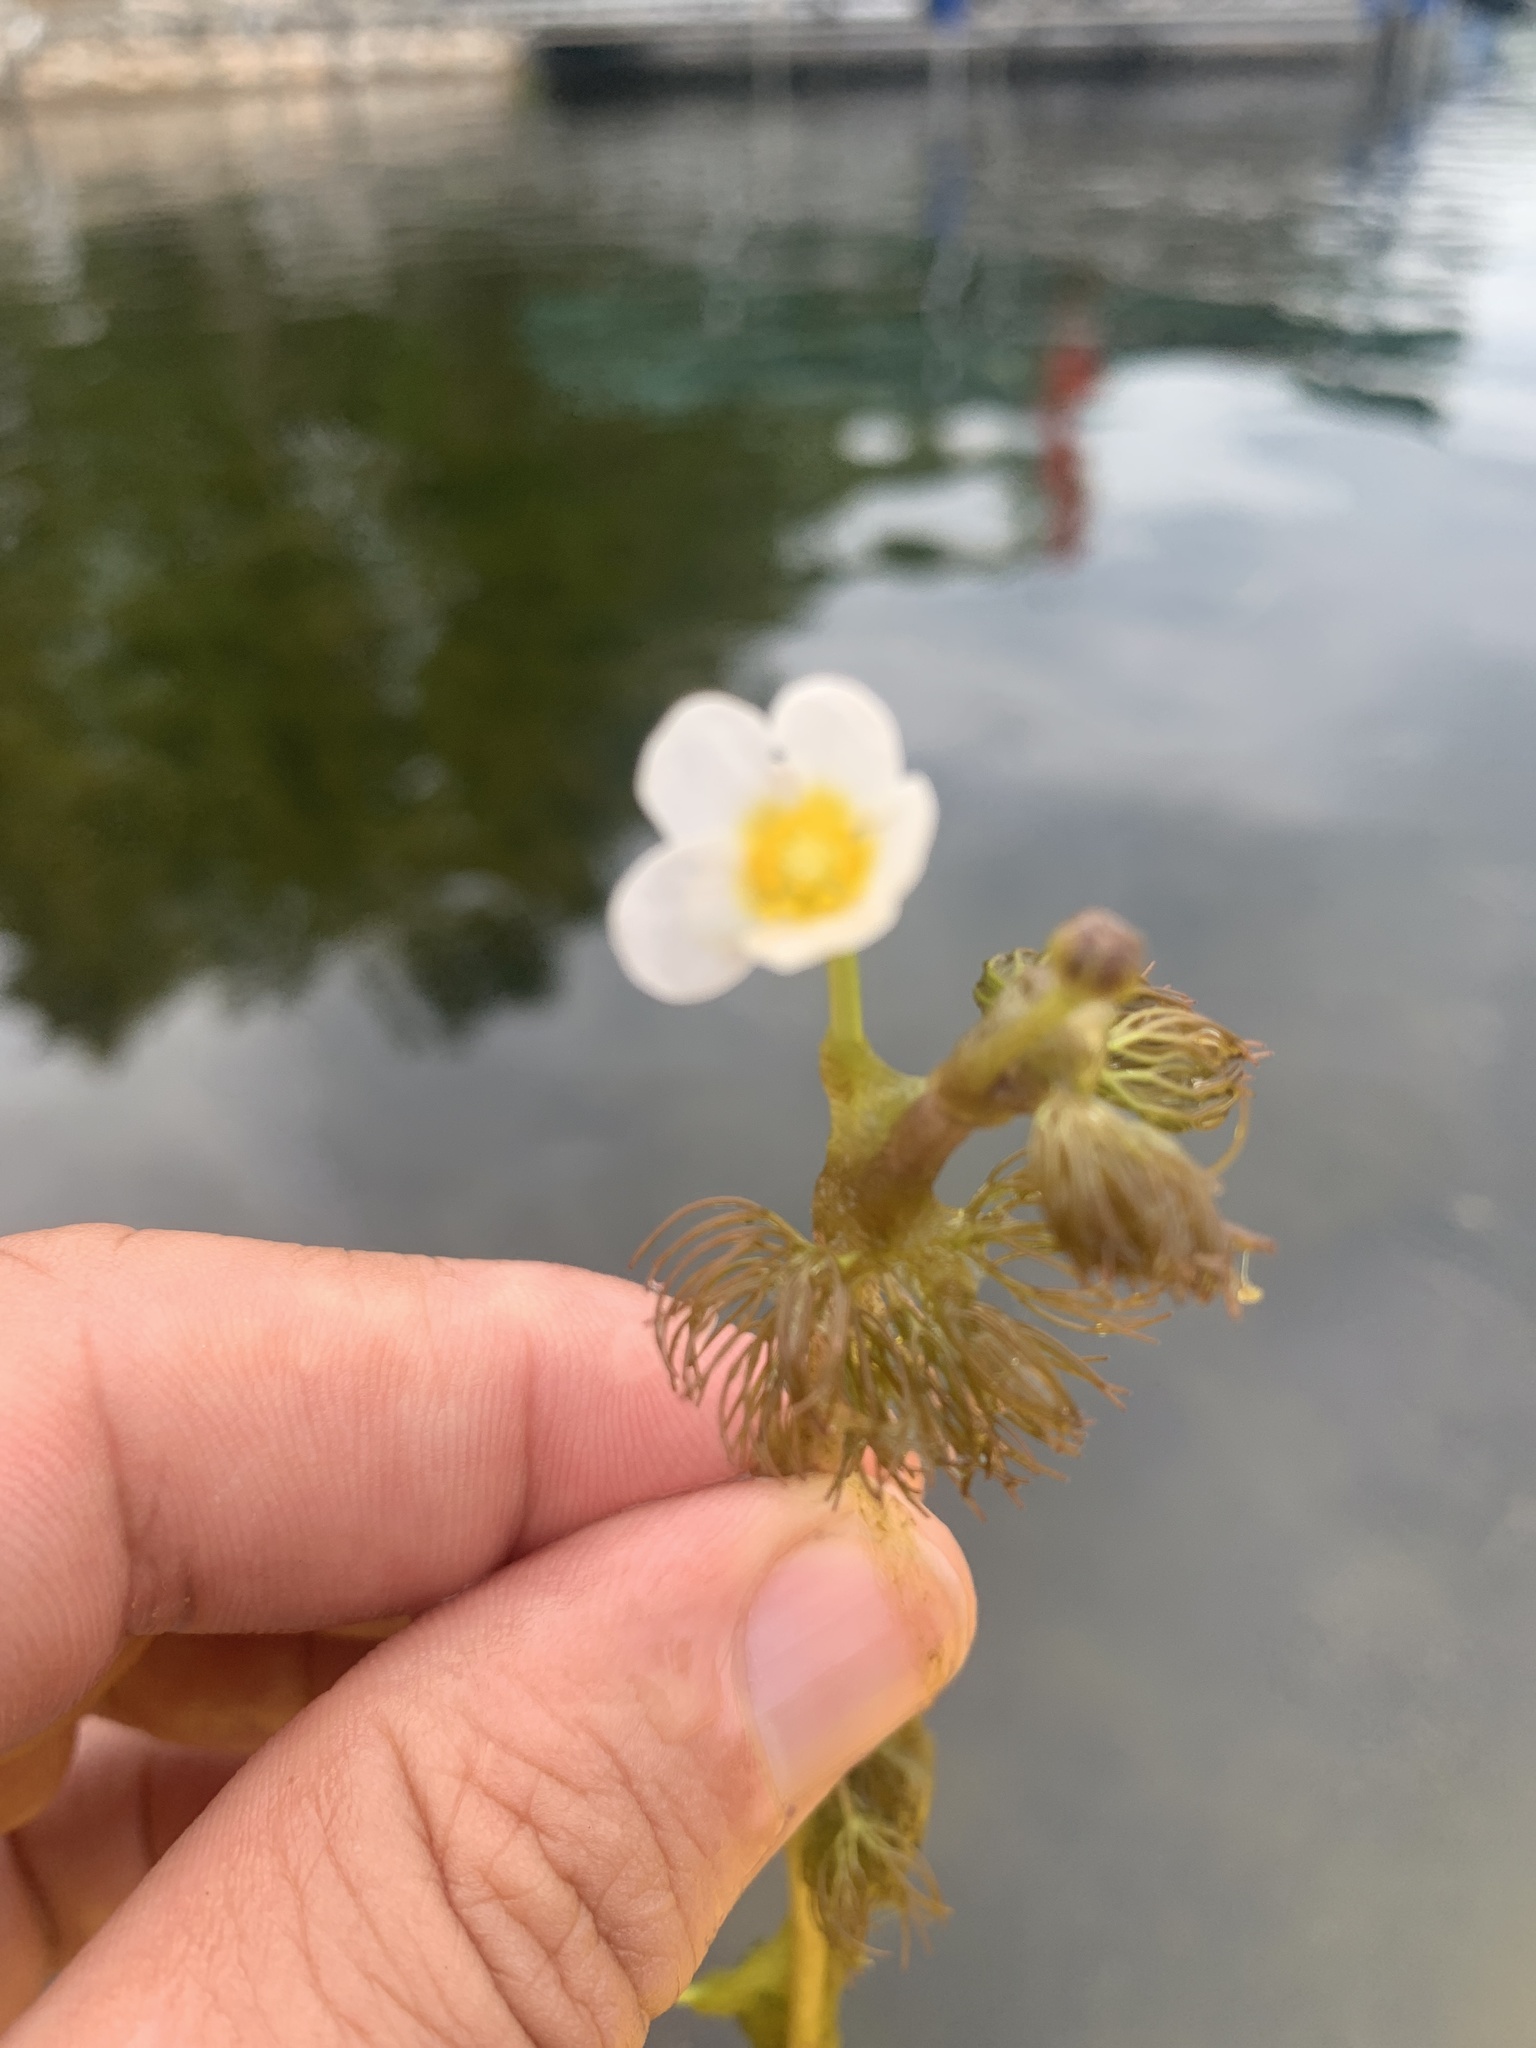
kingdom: Plantae
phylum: Tracheophyta
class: Magnoliopsida
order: Ranunculales
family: Ranunculaceae
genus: Ranunculus
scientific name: Ranunculus aquatilis
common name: Common water-crowfoot
